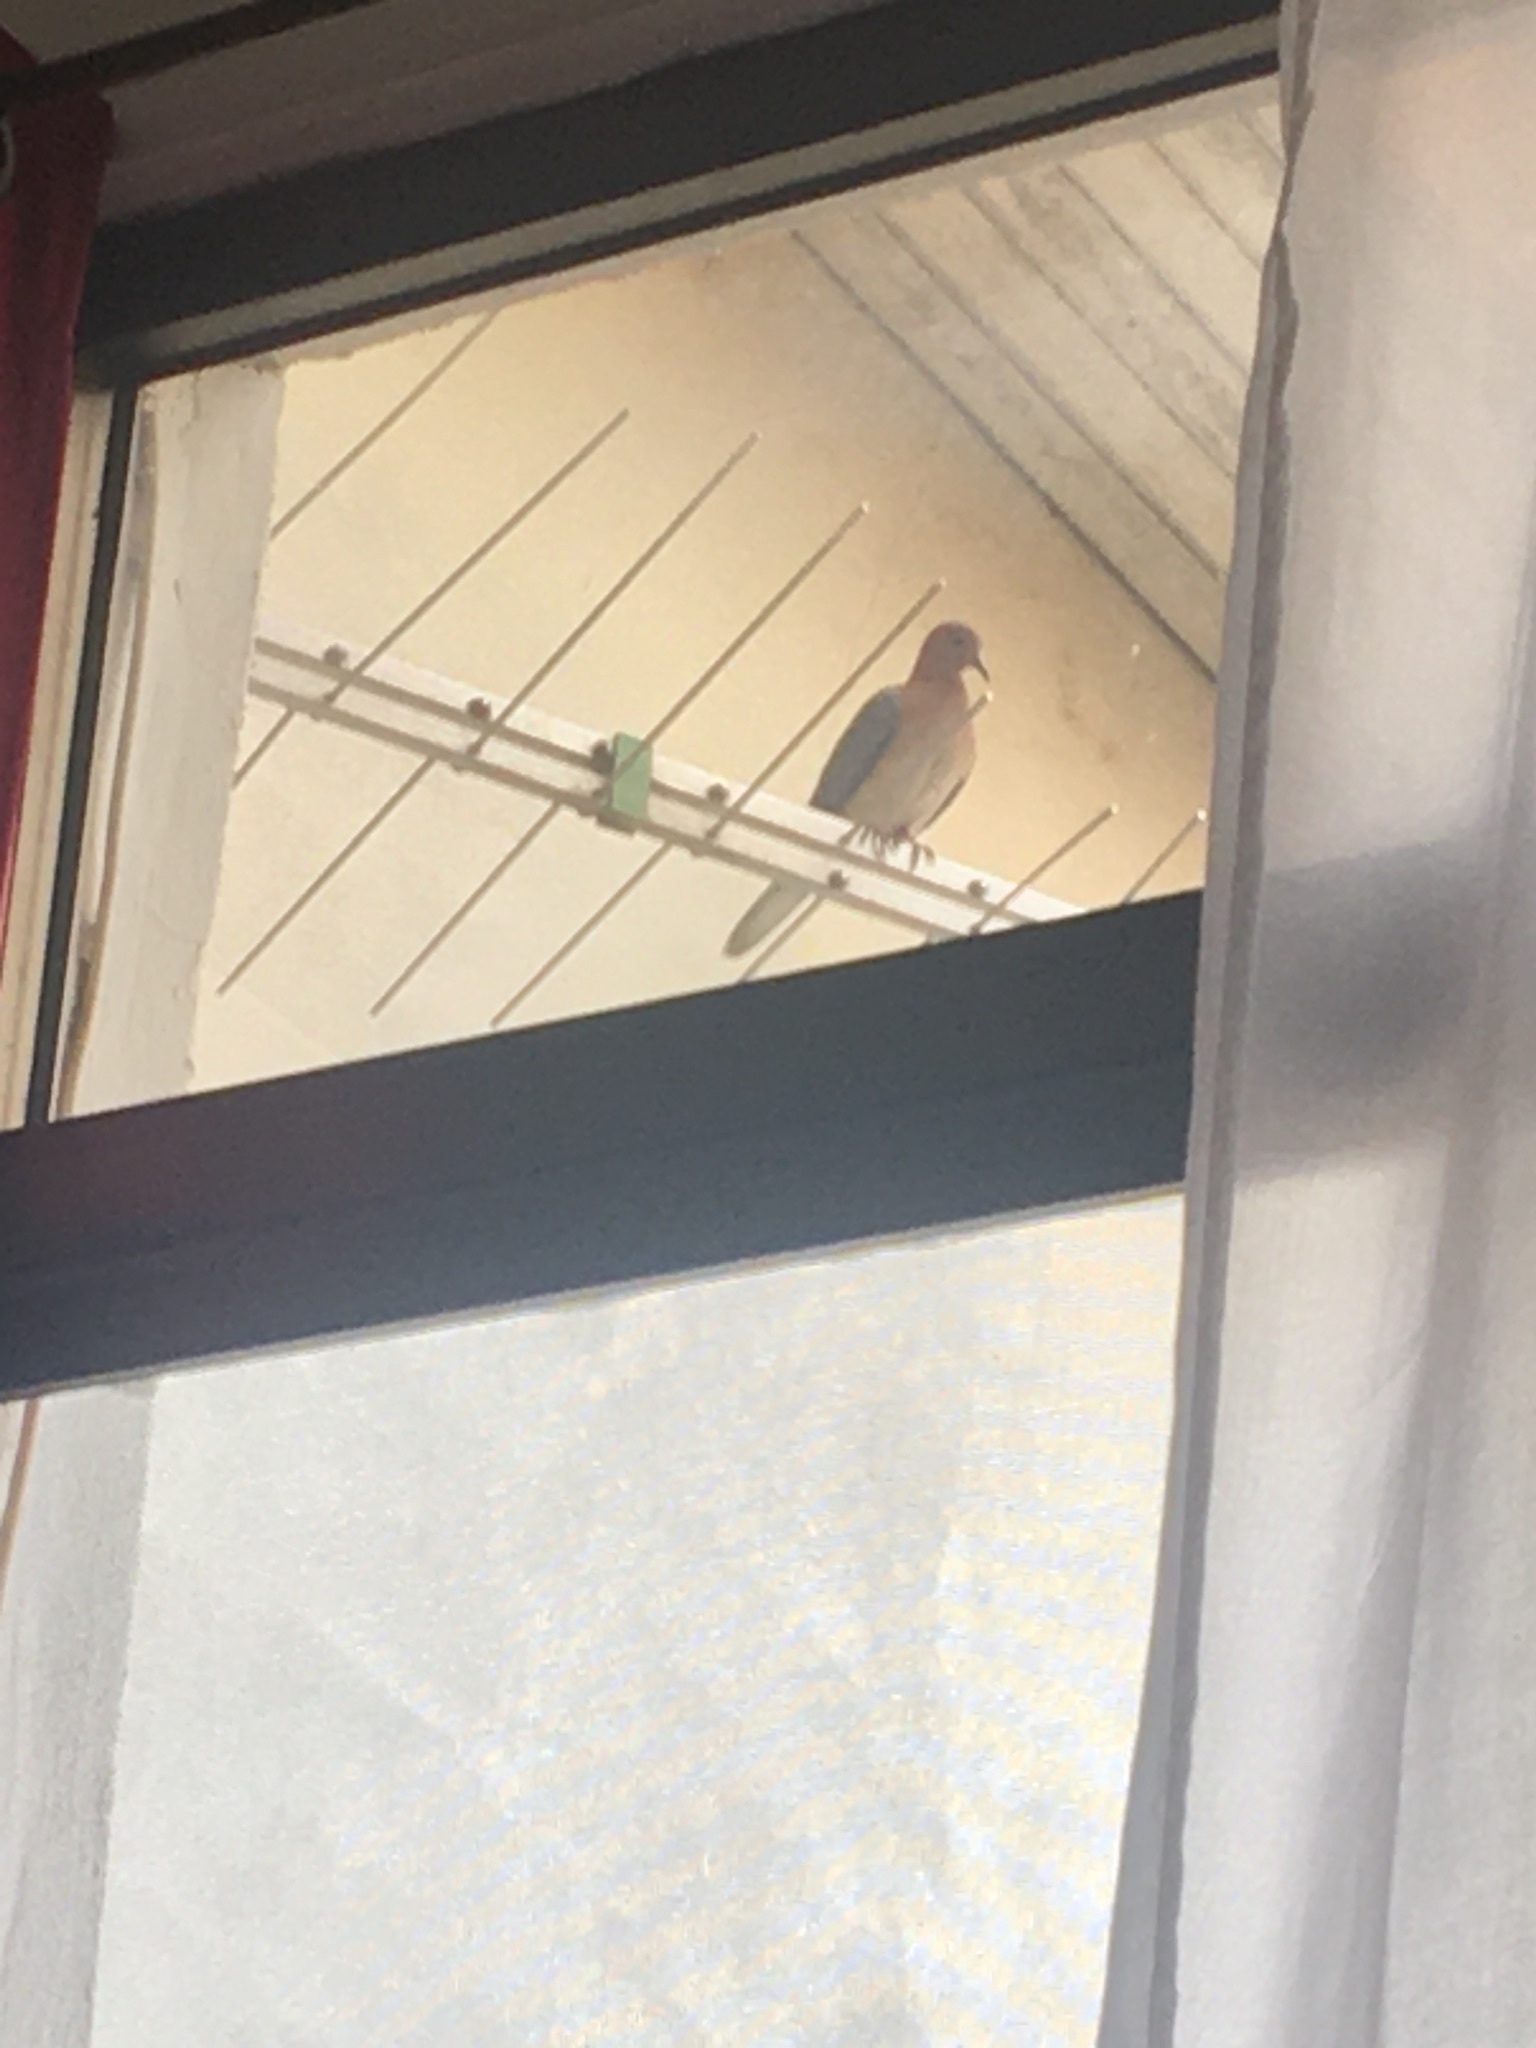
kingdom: Animalia
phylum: Chordata
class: Aves
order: Columbiformes
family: Columbidae
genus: Spilopelia
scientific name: Spilopelia senegalensis
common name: Laughing dove
